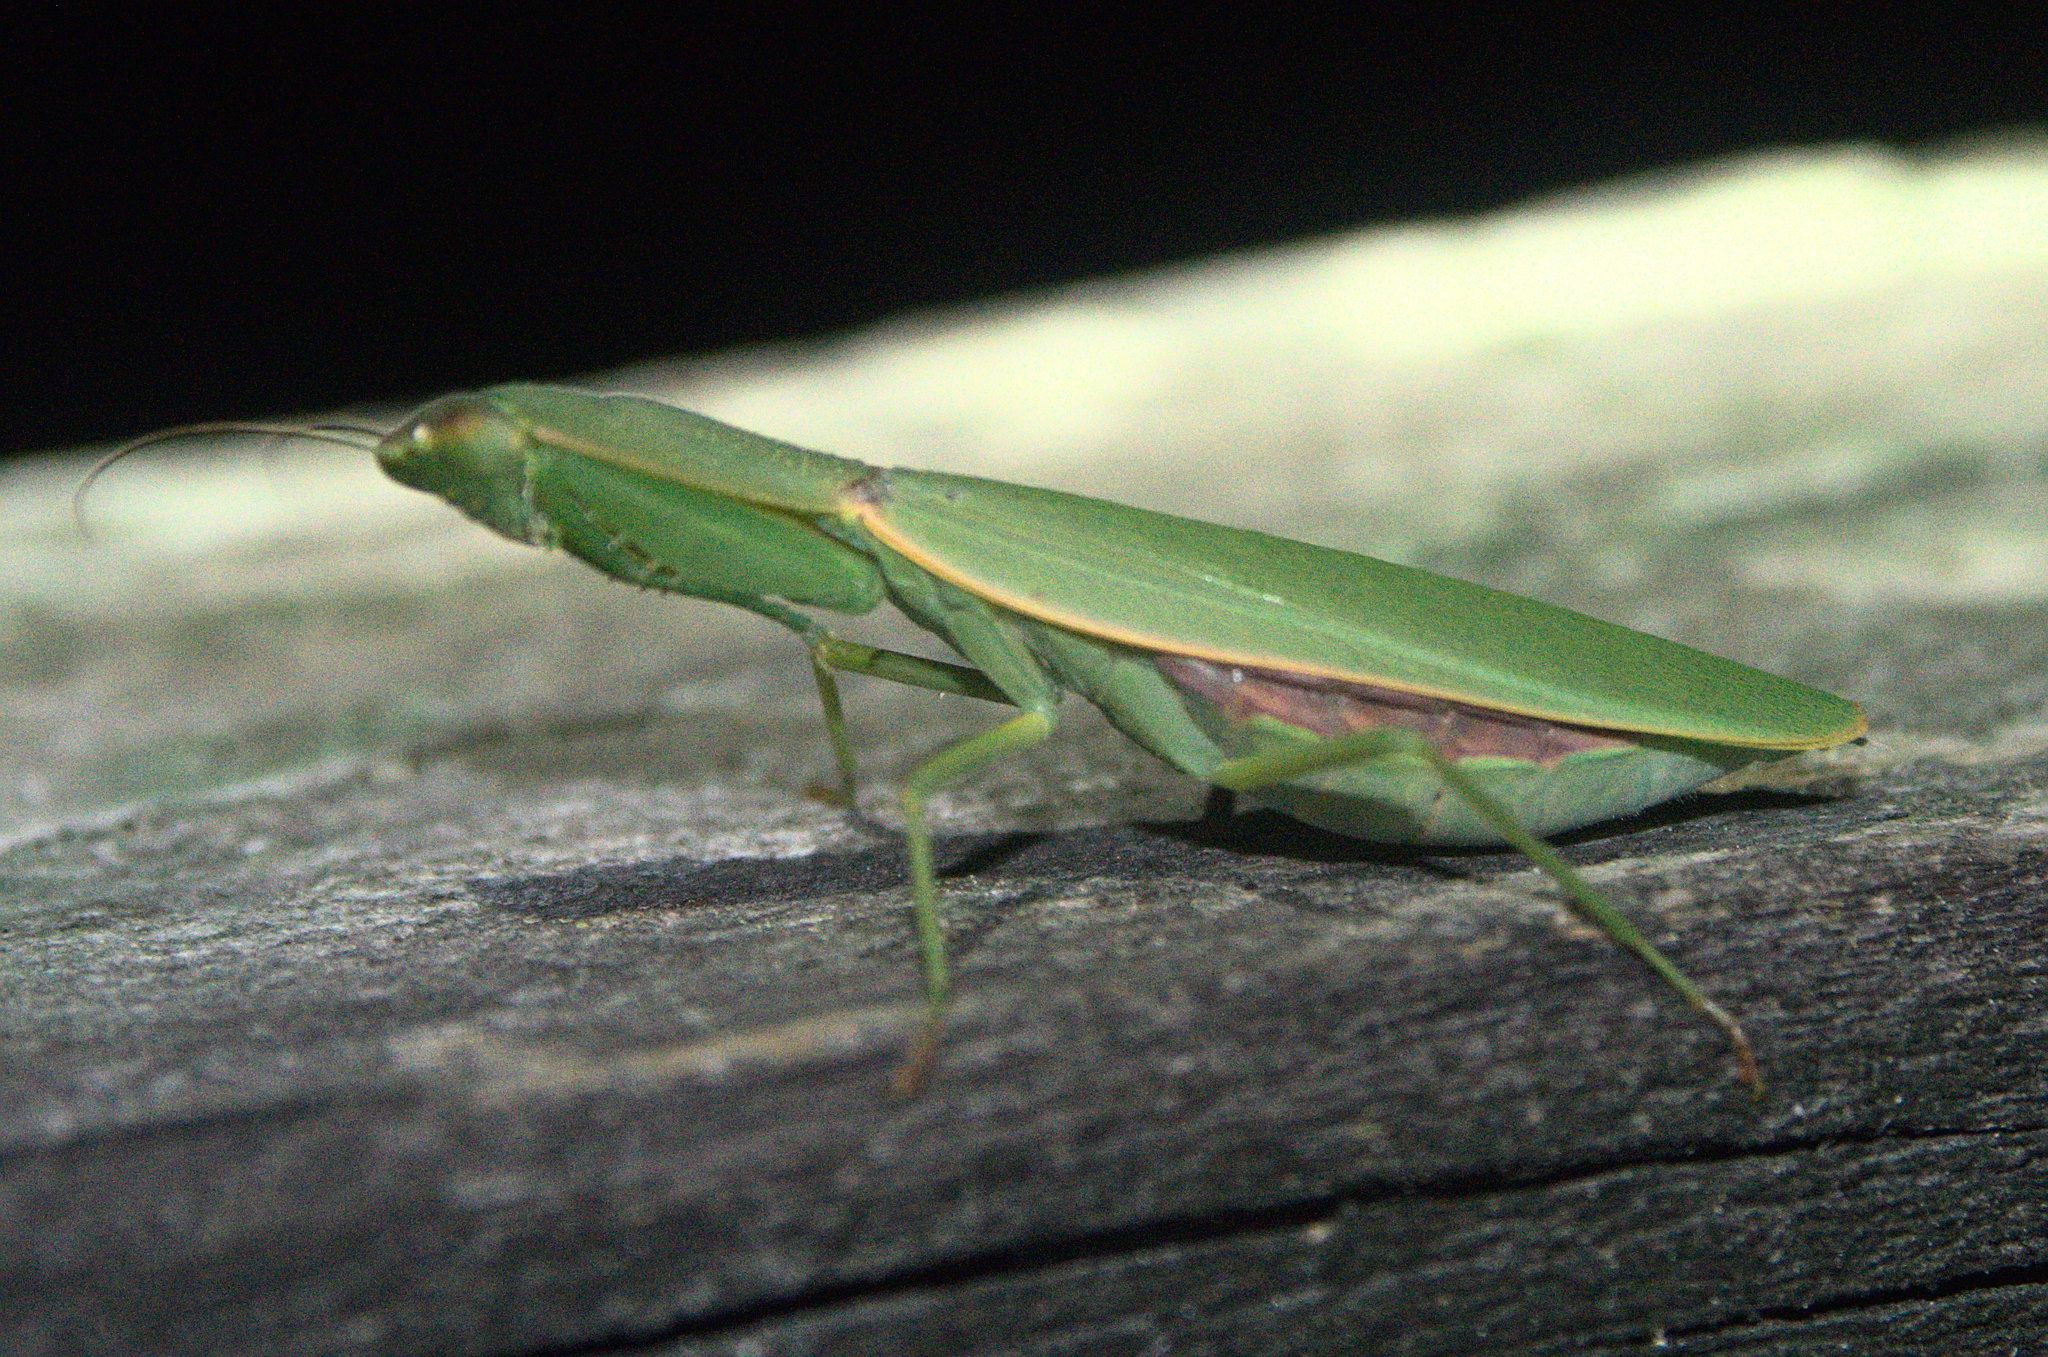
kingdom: Animalia
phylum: Arthropoda
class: Insecta
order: Mantodea
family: Mantidae
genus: Orthodera
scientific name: Orthodera novaezealandiae
